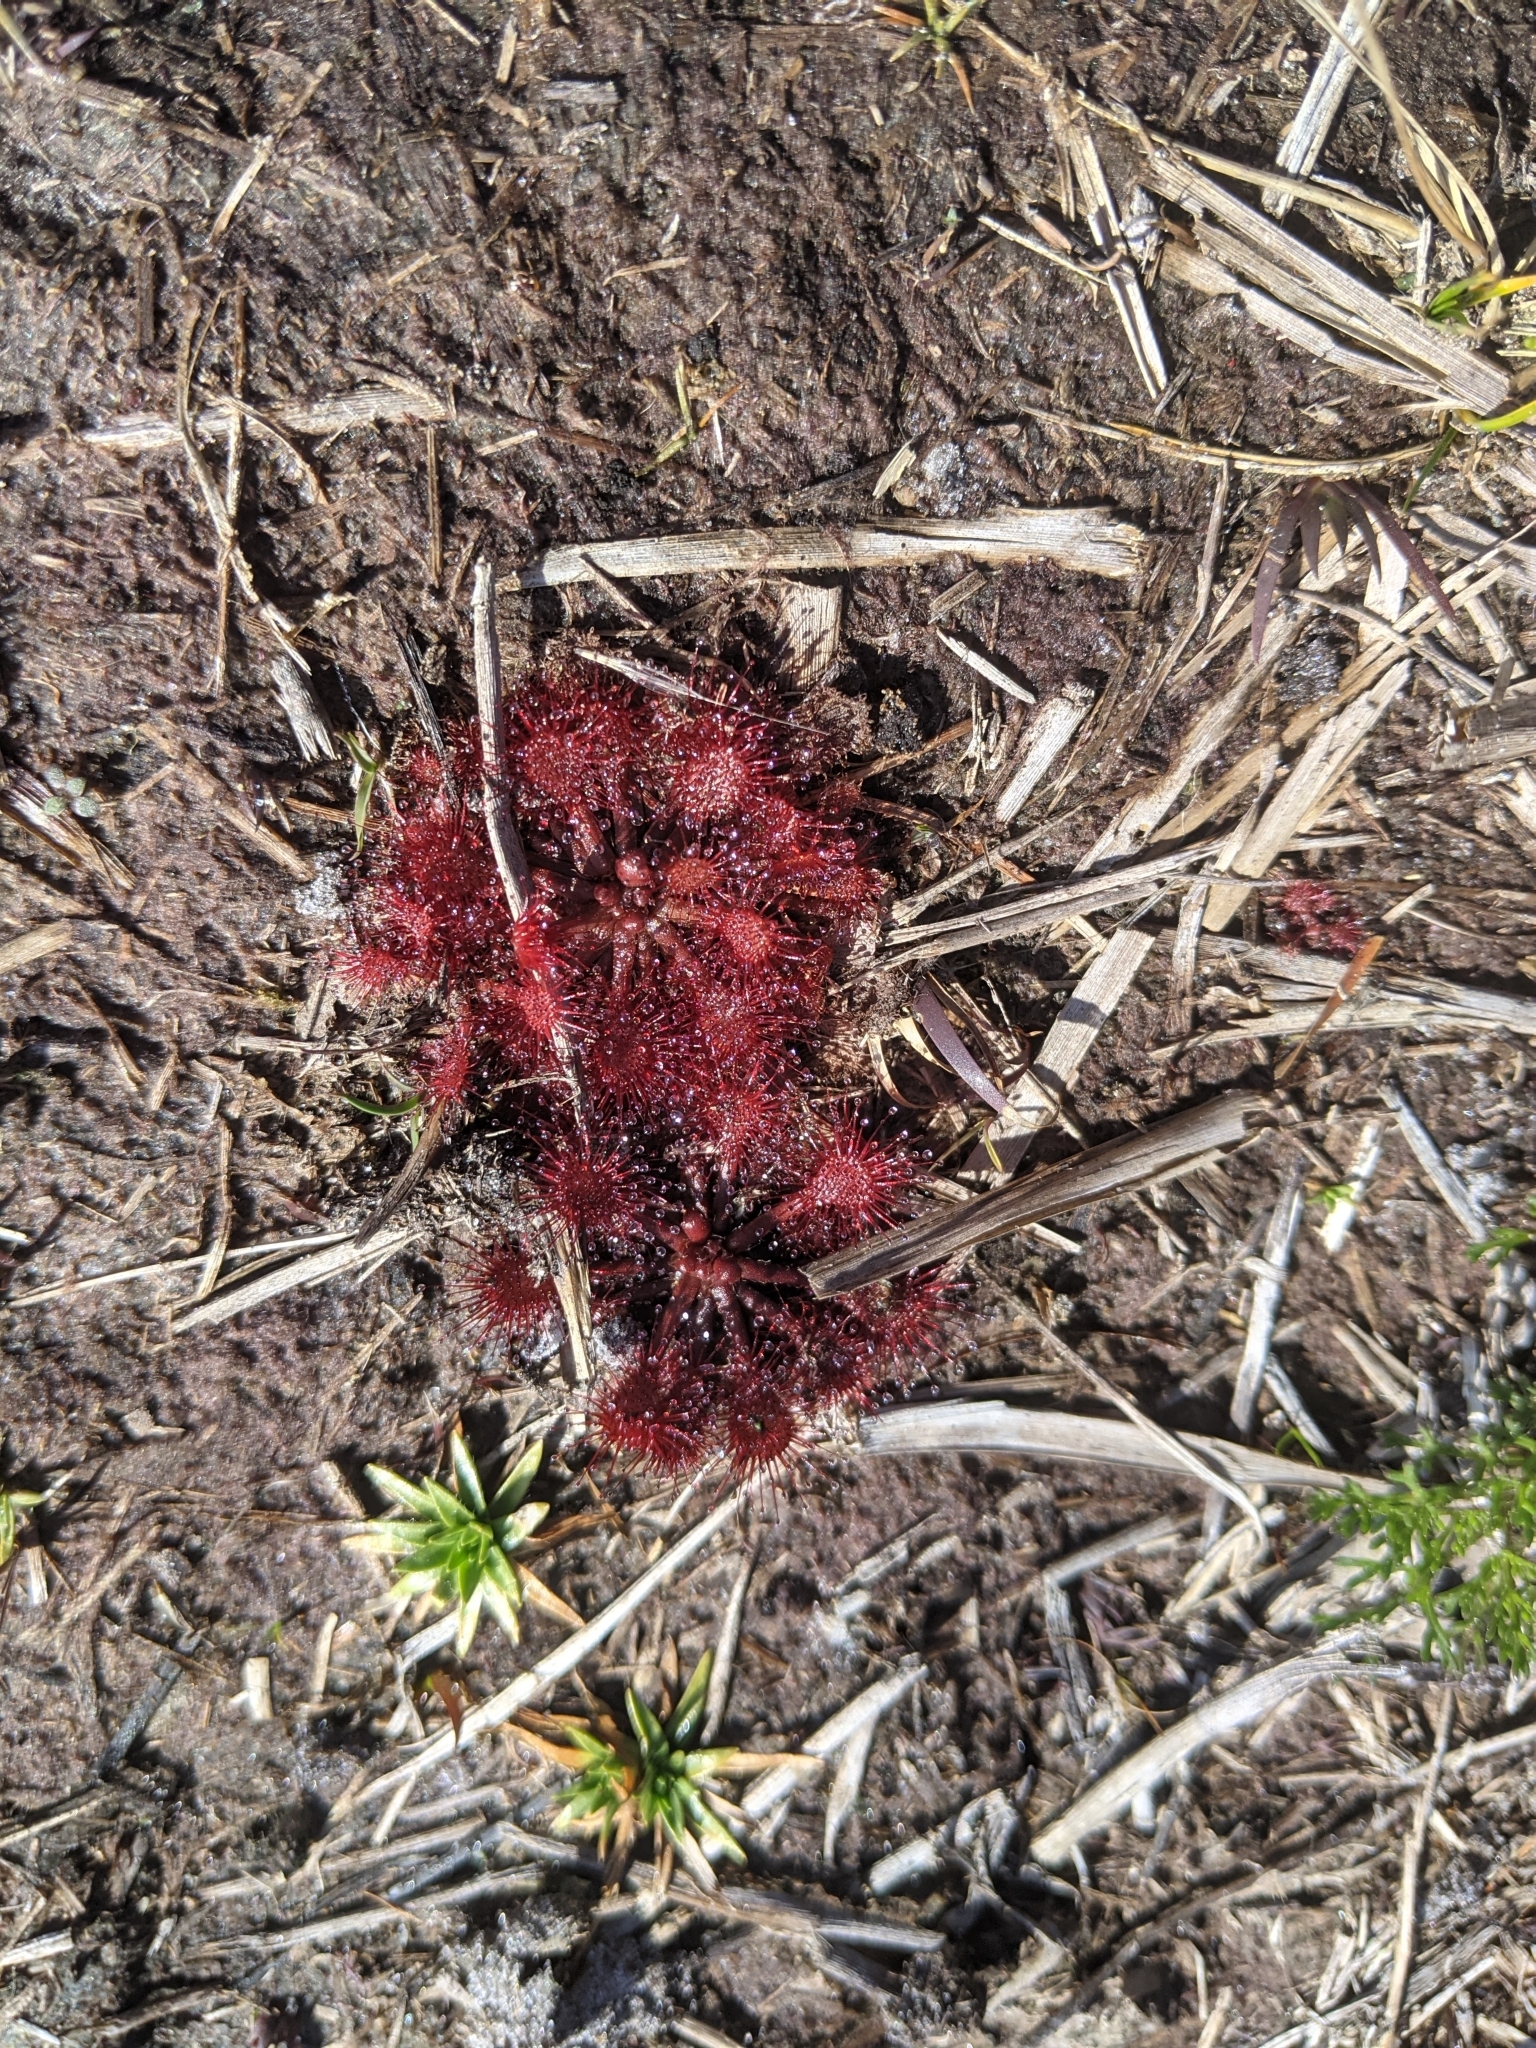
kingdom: Plantae
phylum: Tracheophyta
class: Magnoliopsida
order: Caryophyllales
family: Droseraceae
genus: Drosera
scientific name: Drosera capillaris
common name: Pink sundew
